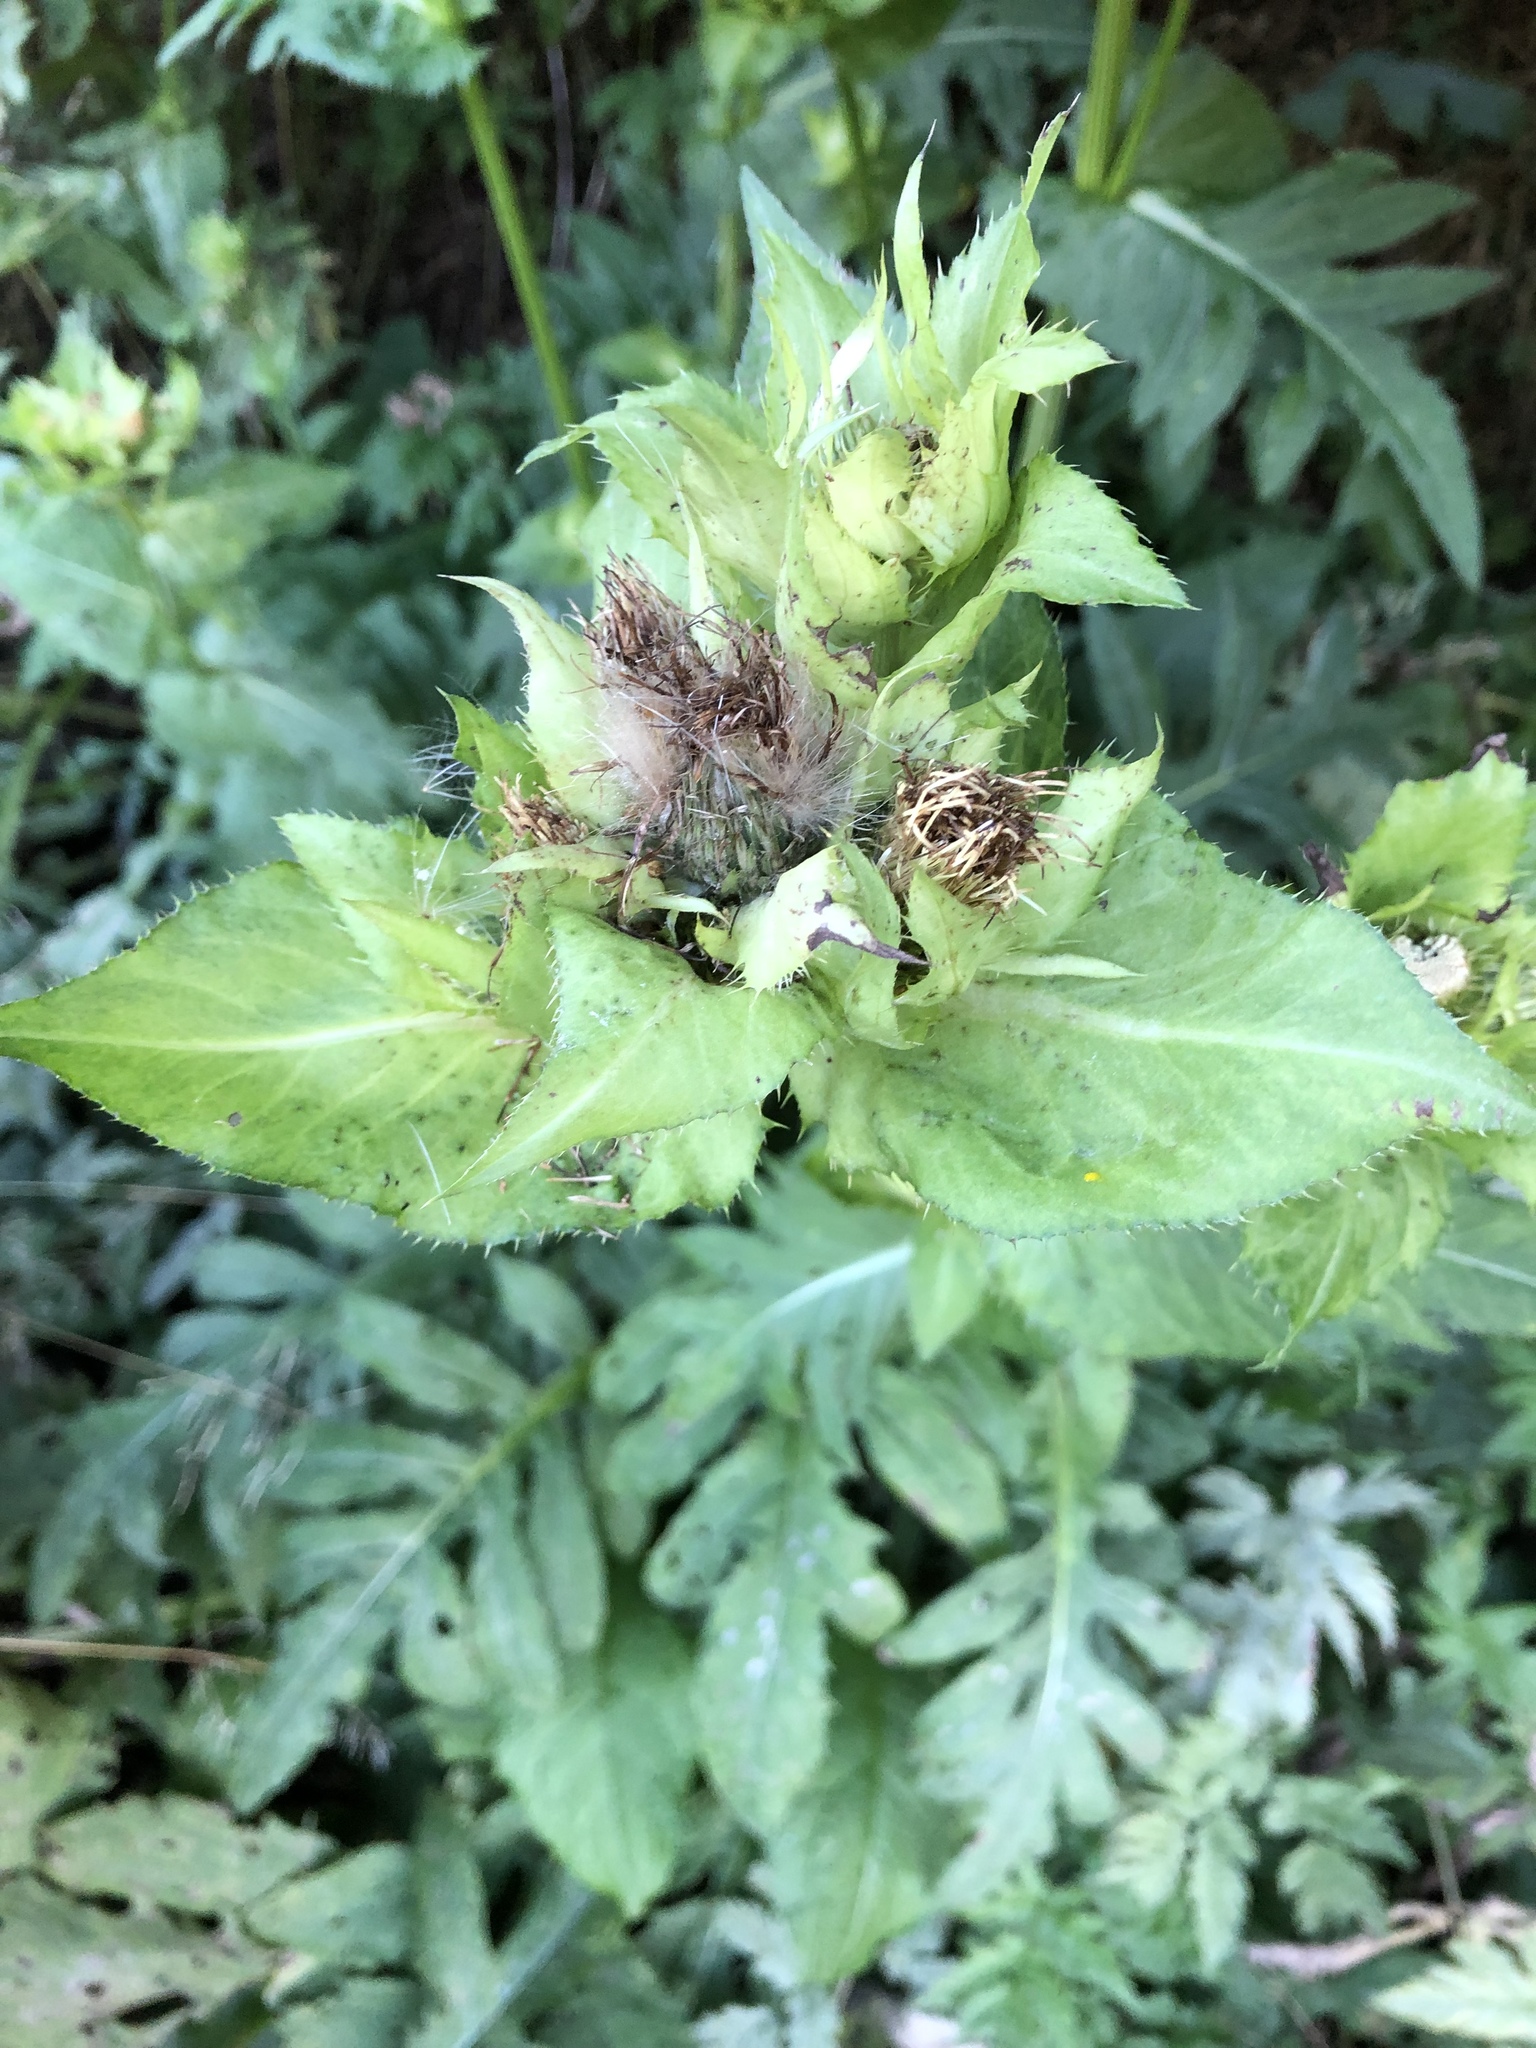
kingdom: Plantae
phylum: Tracheophyta
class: Magnoliopsida
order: Asterales
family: Asteraceae
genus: Cirsium
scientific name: Cirsium oleraceum
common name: Cabbage thistle
